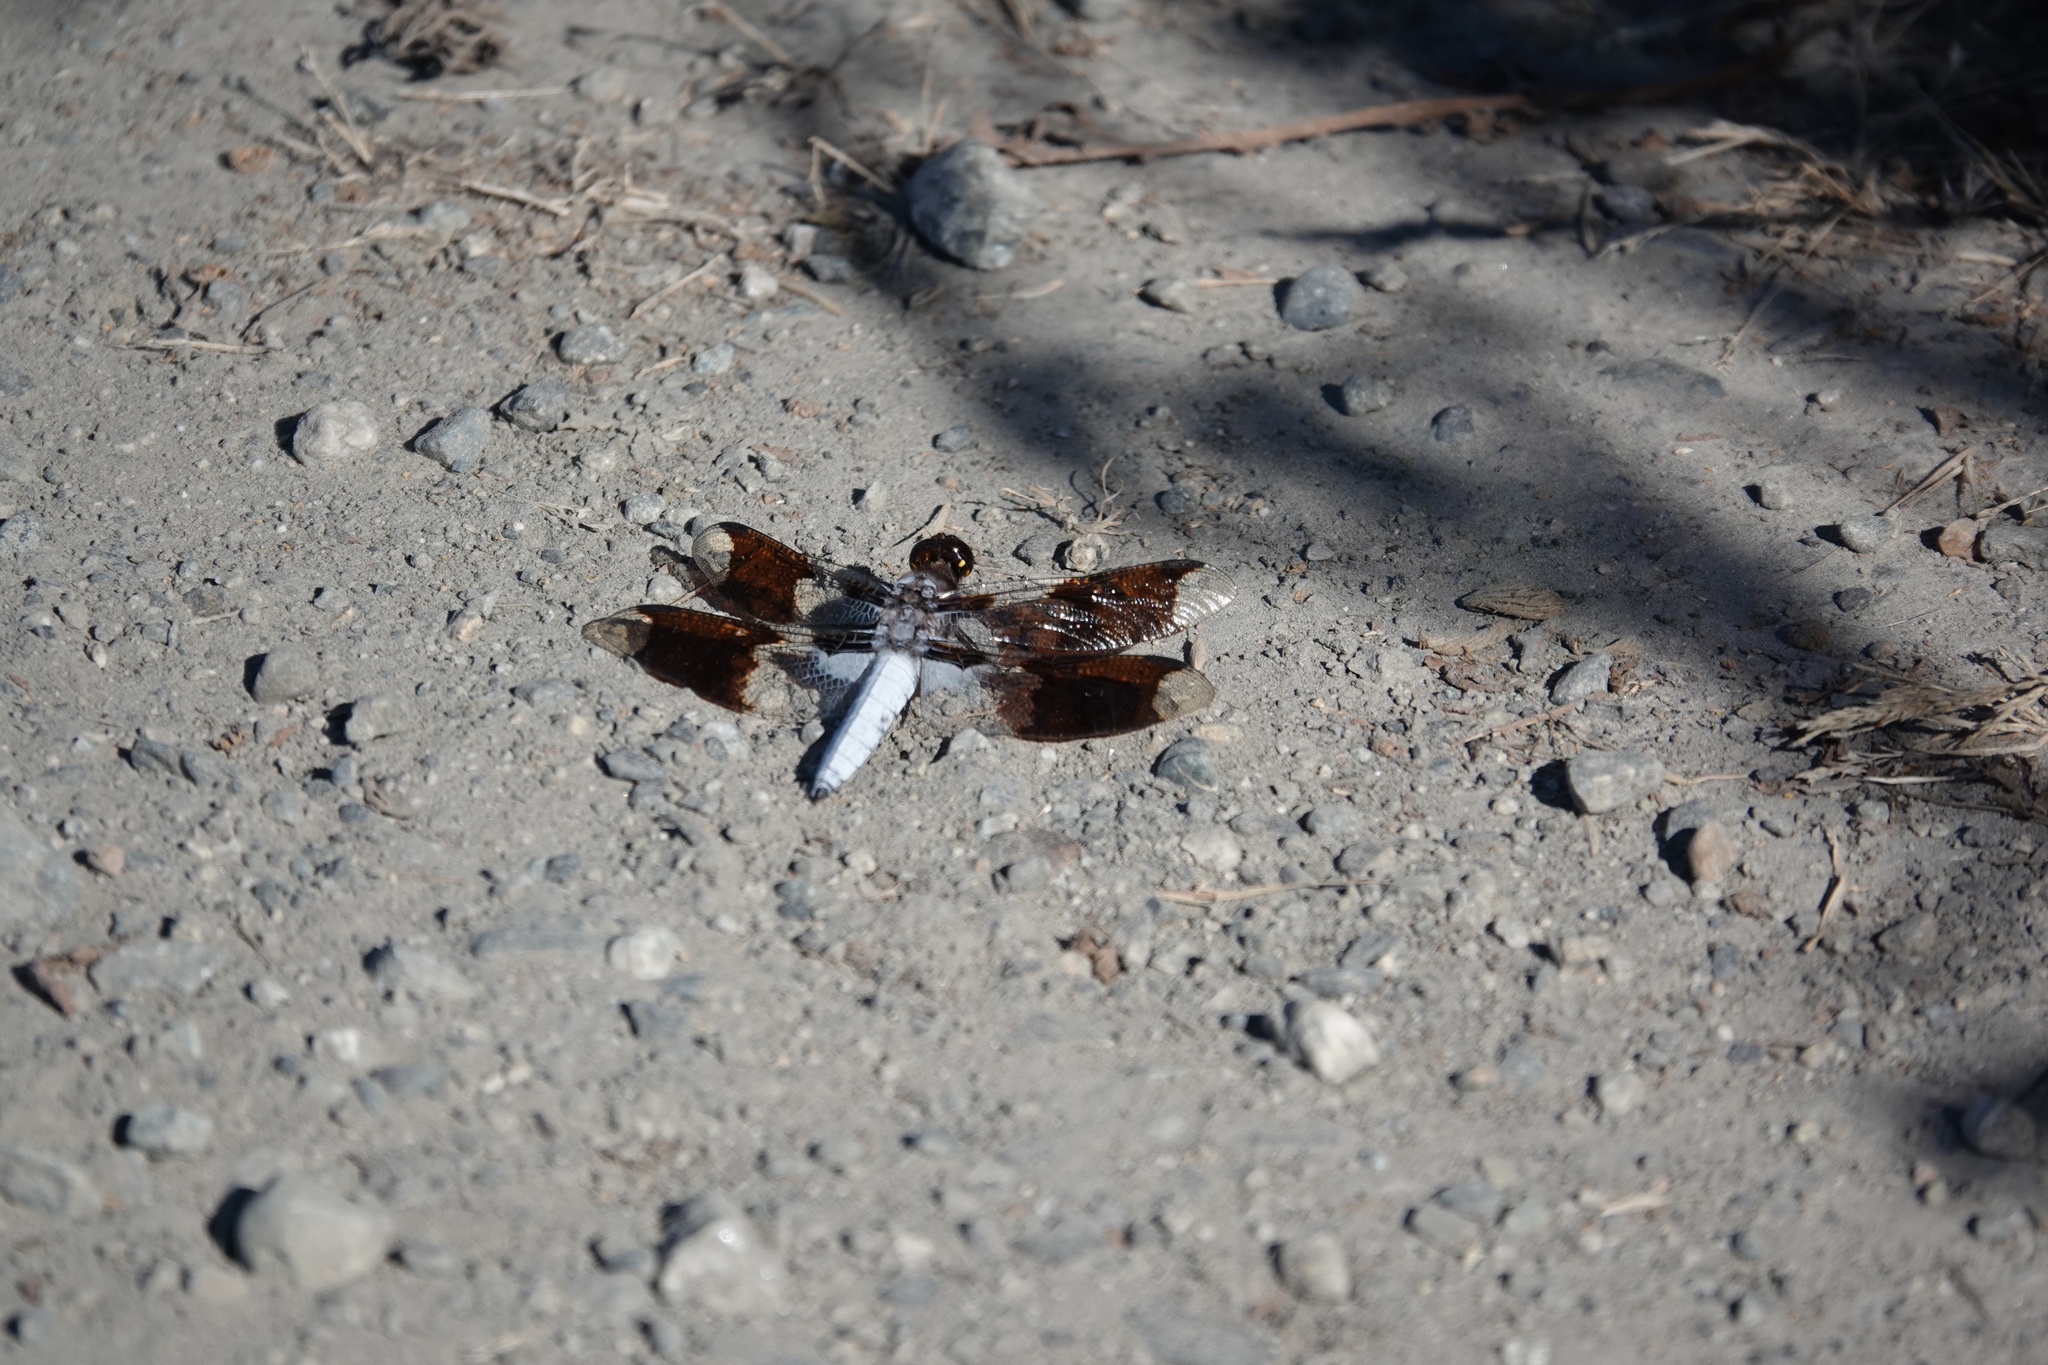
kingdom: Animalia
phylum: Arthropoda
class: Insecta
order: Odonata
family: Libellulidae
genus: Plathemis
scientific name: Plathemis lydia
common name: Common whitetail
